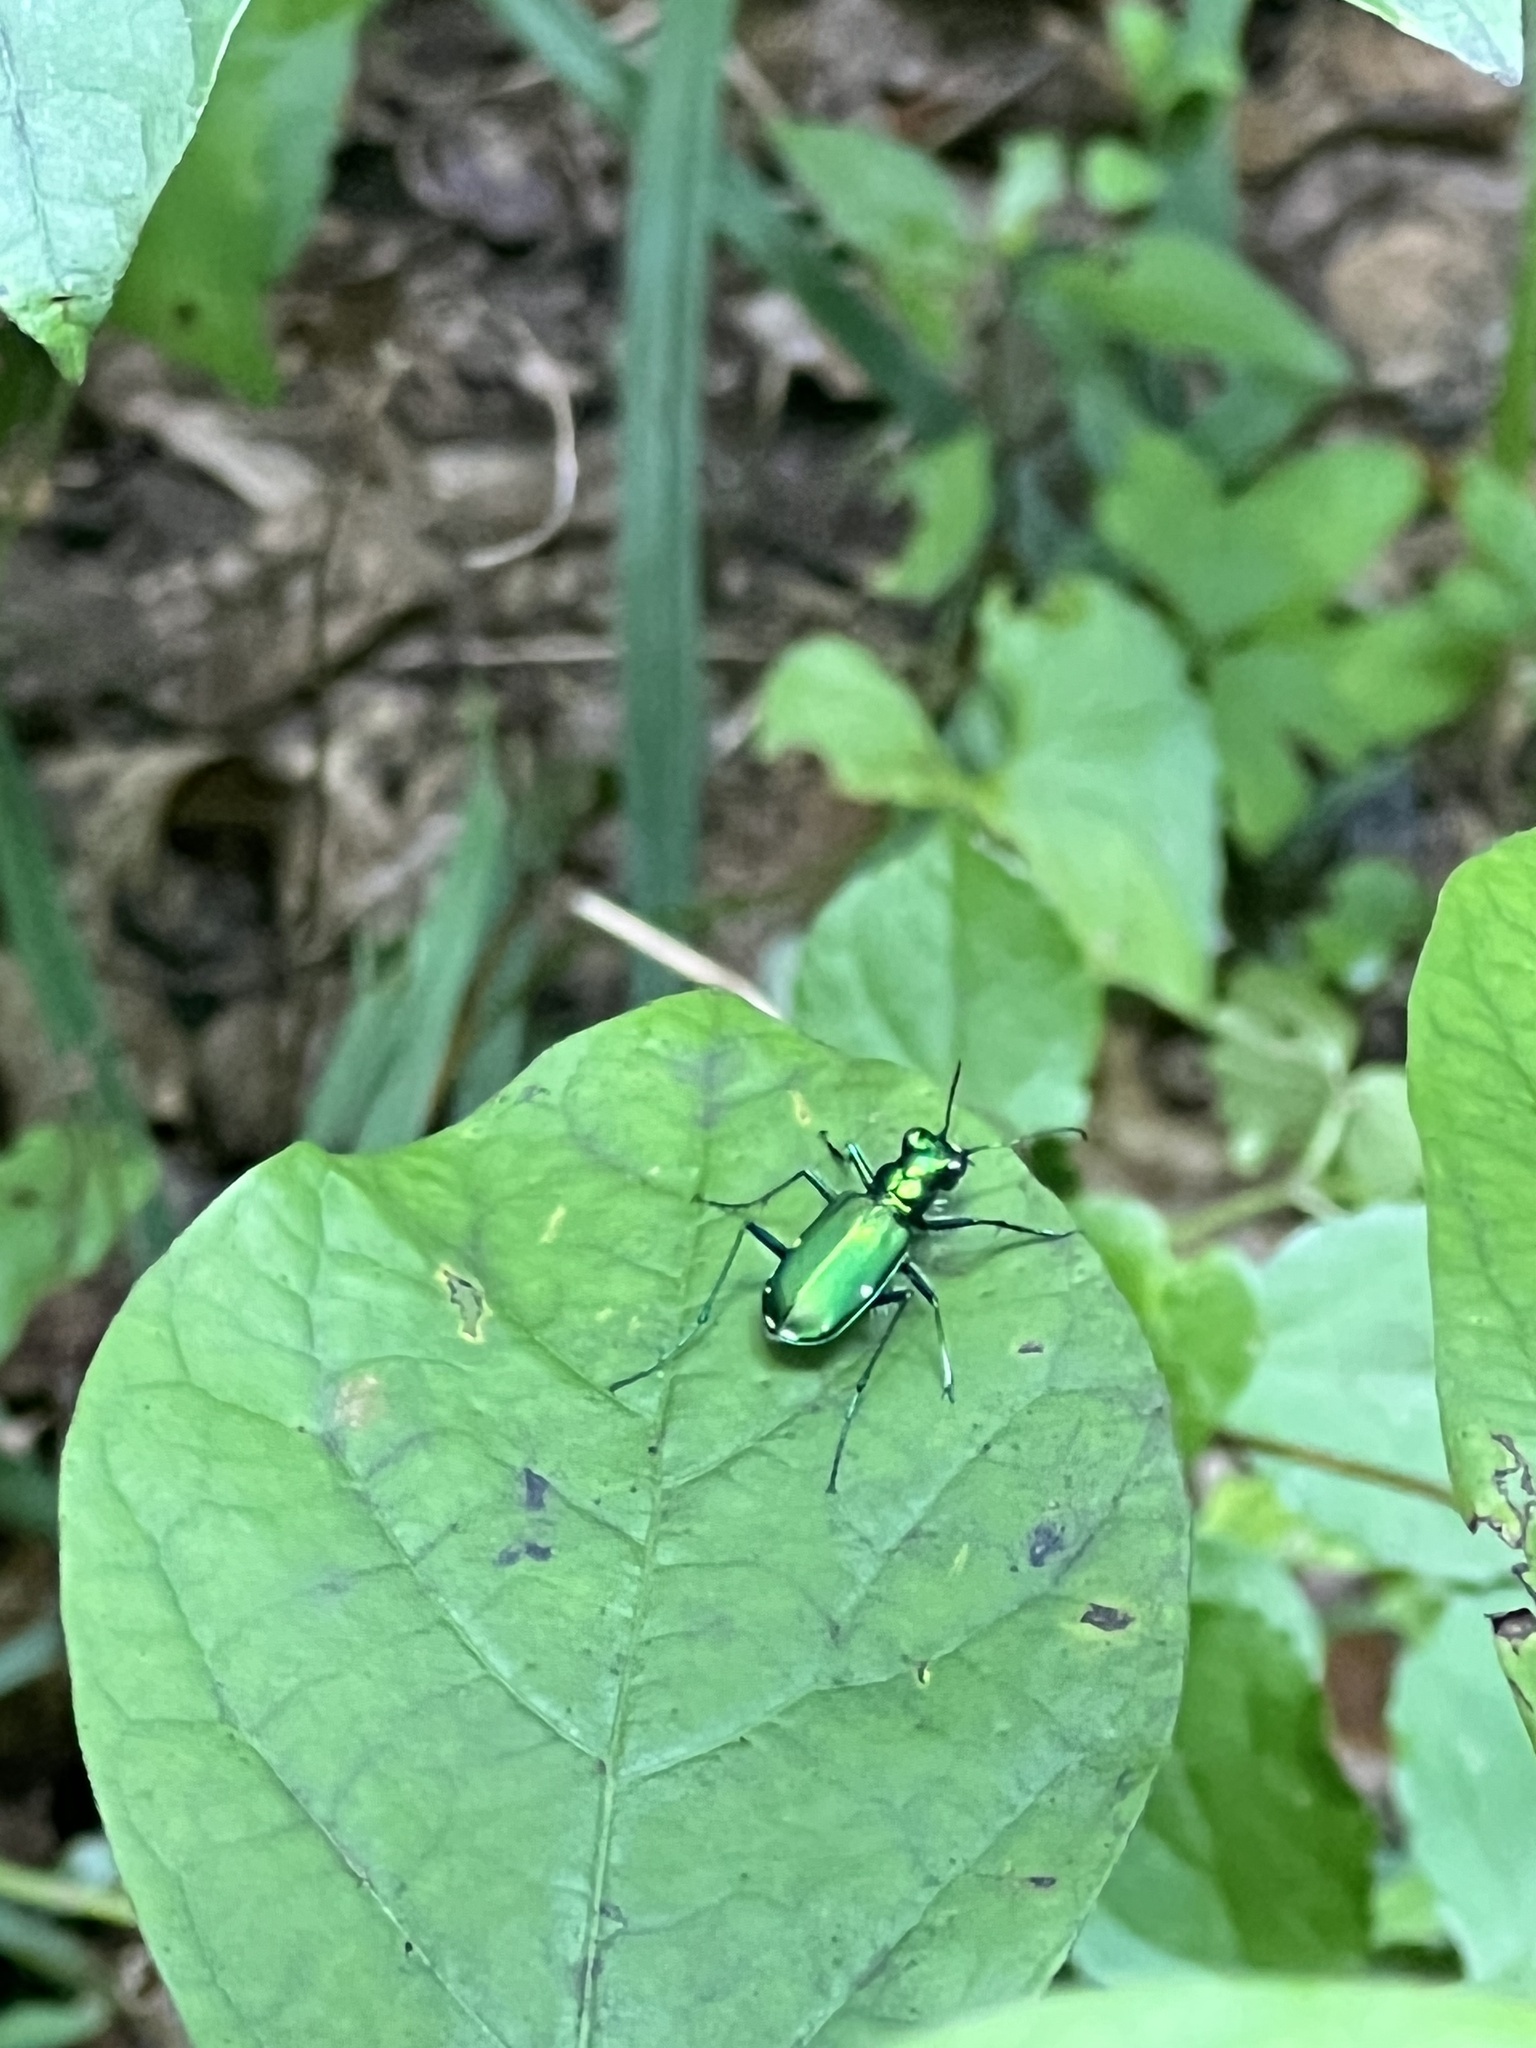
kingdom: Animalia
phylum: Arthropoda
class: Insecta
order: Coleoptera
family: Carabidae
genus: Cicindela
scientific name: Cicindela sexguttata
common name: Six-spotted tiger beetle
